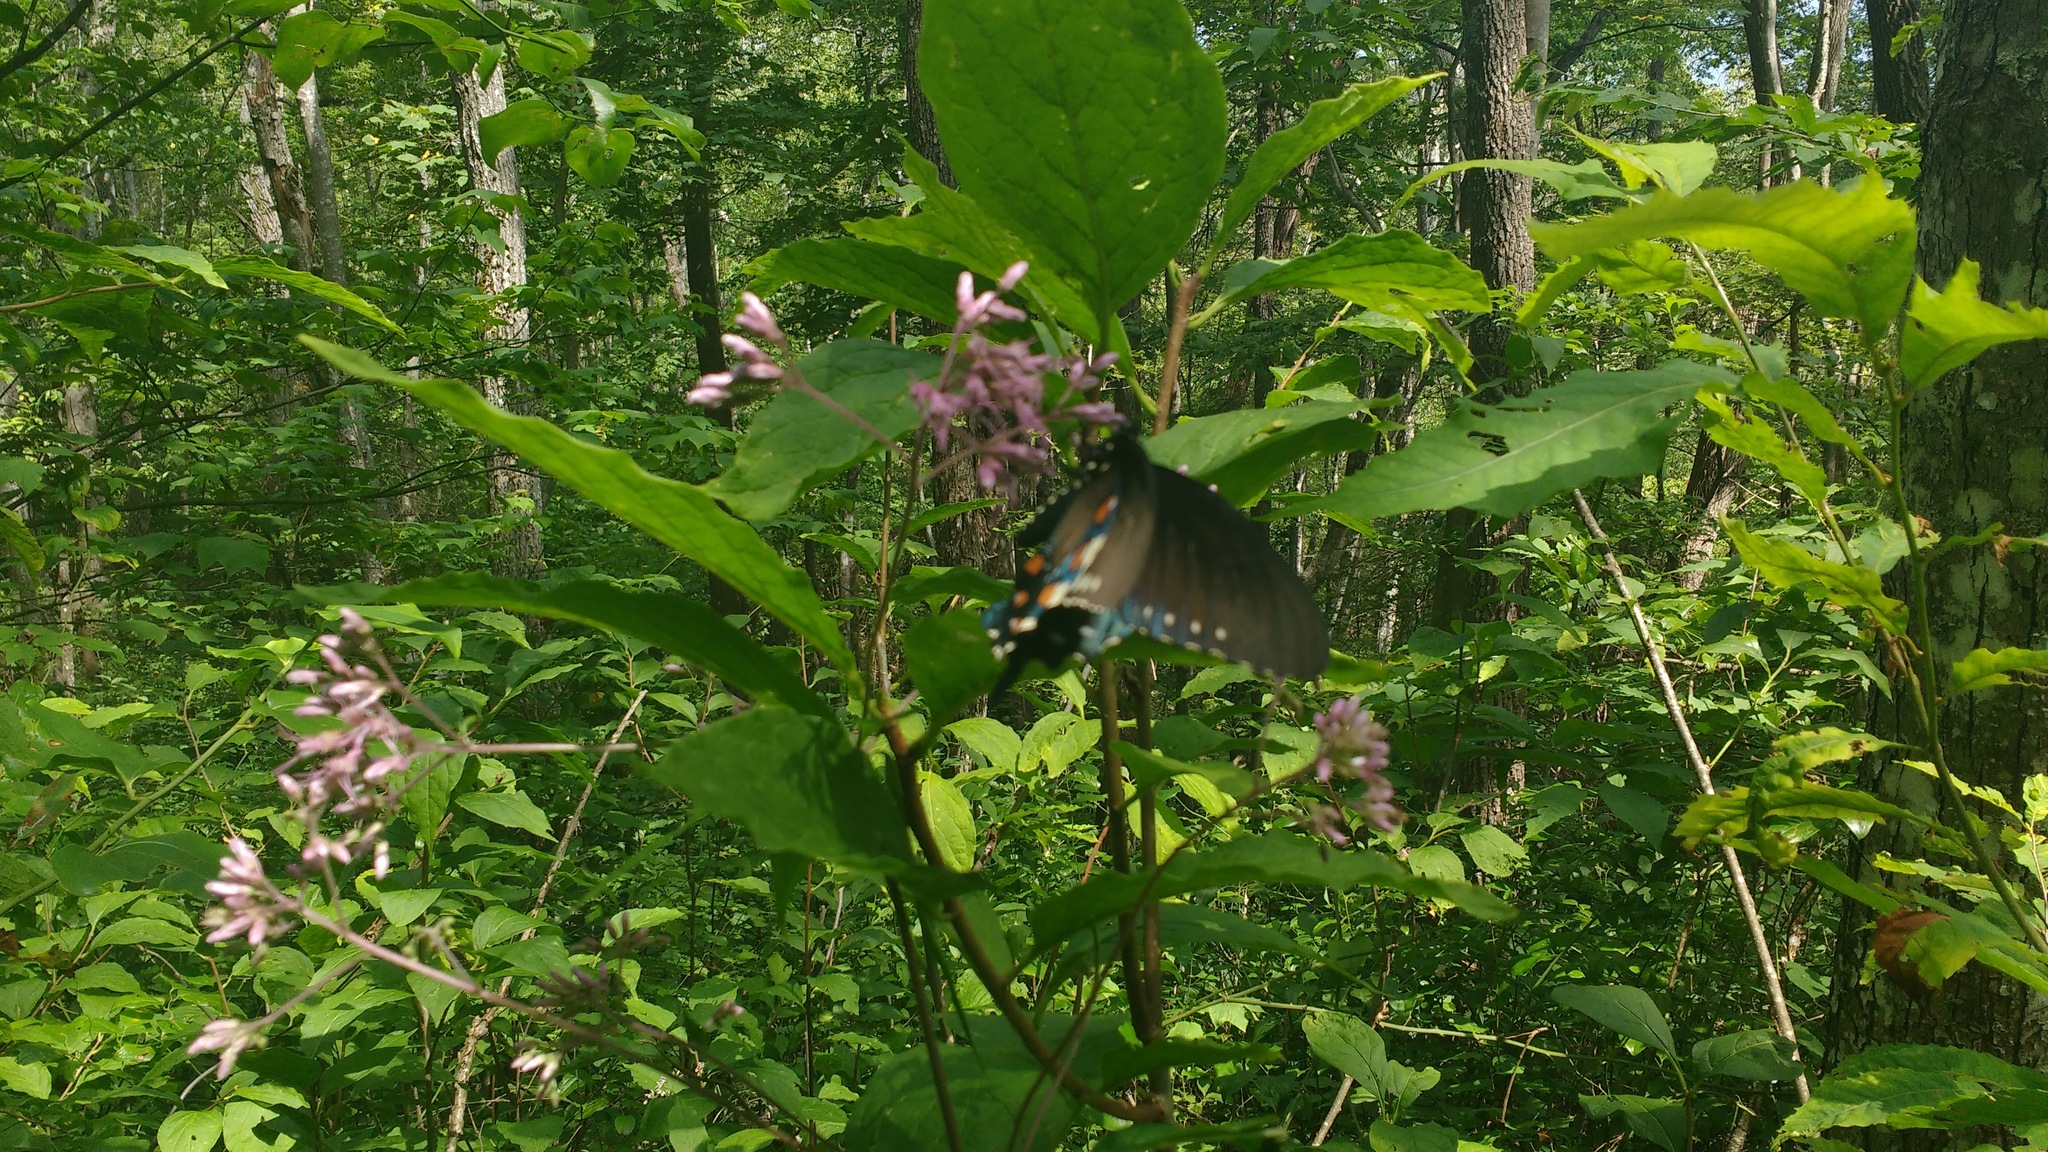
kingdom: Animalia
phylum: Arthropoda
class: Insecta
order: Lepidoptera
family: Papilionidae
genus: Battus
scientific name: Battus philenor
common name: Pipevine swallowtail
